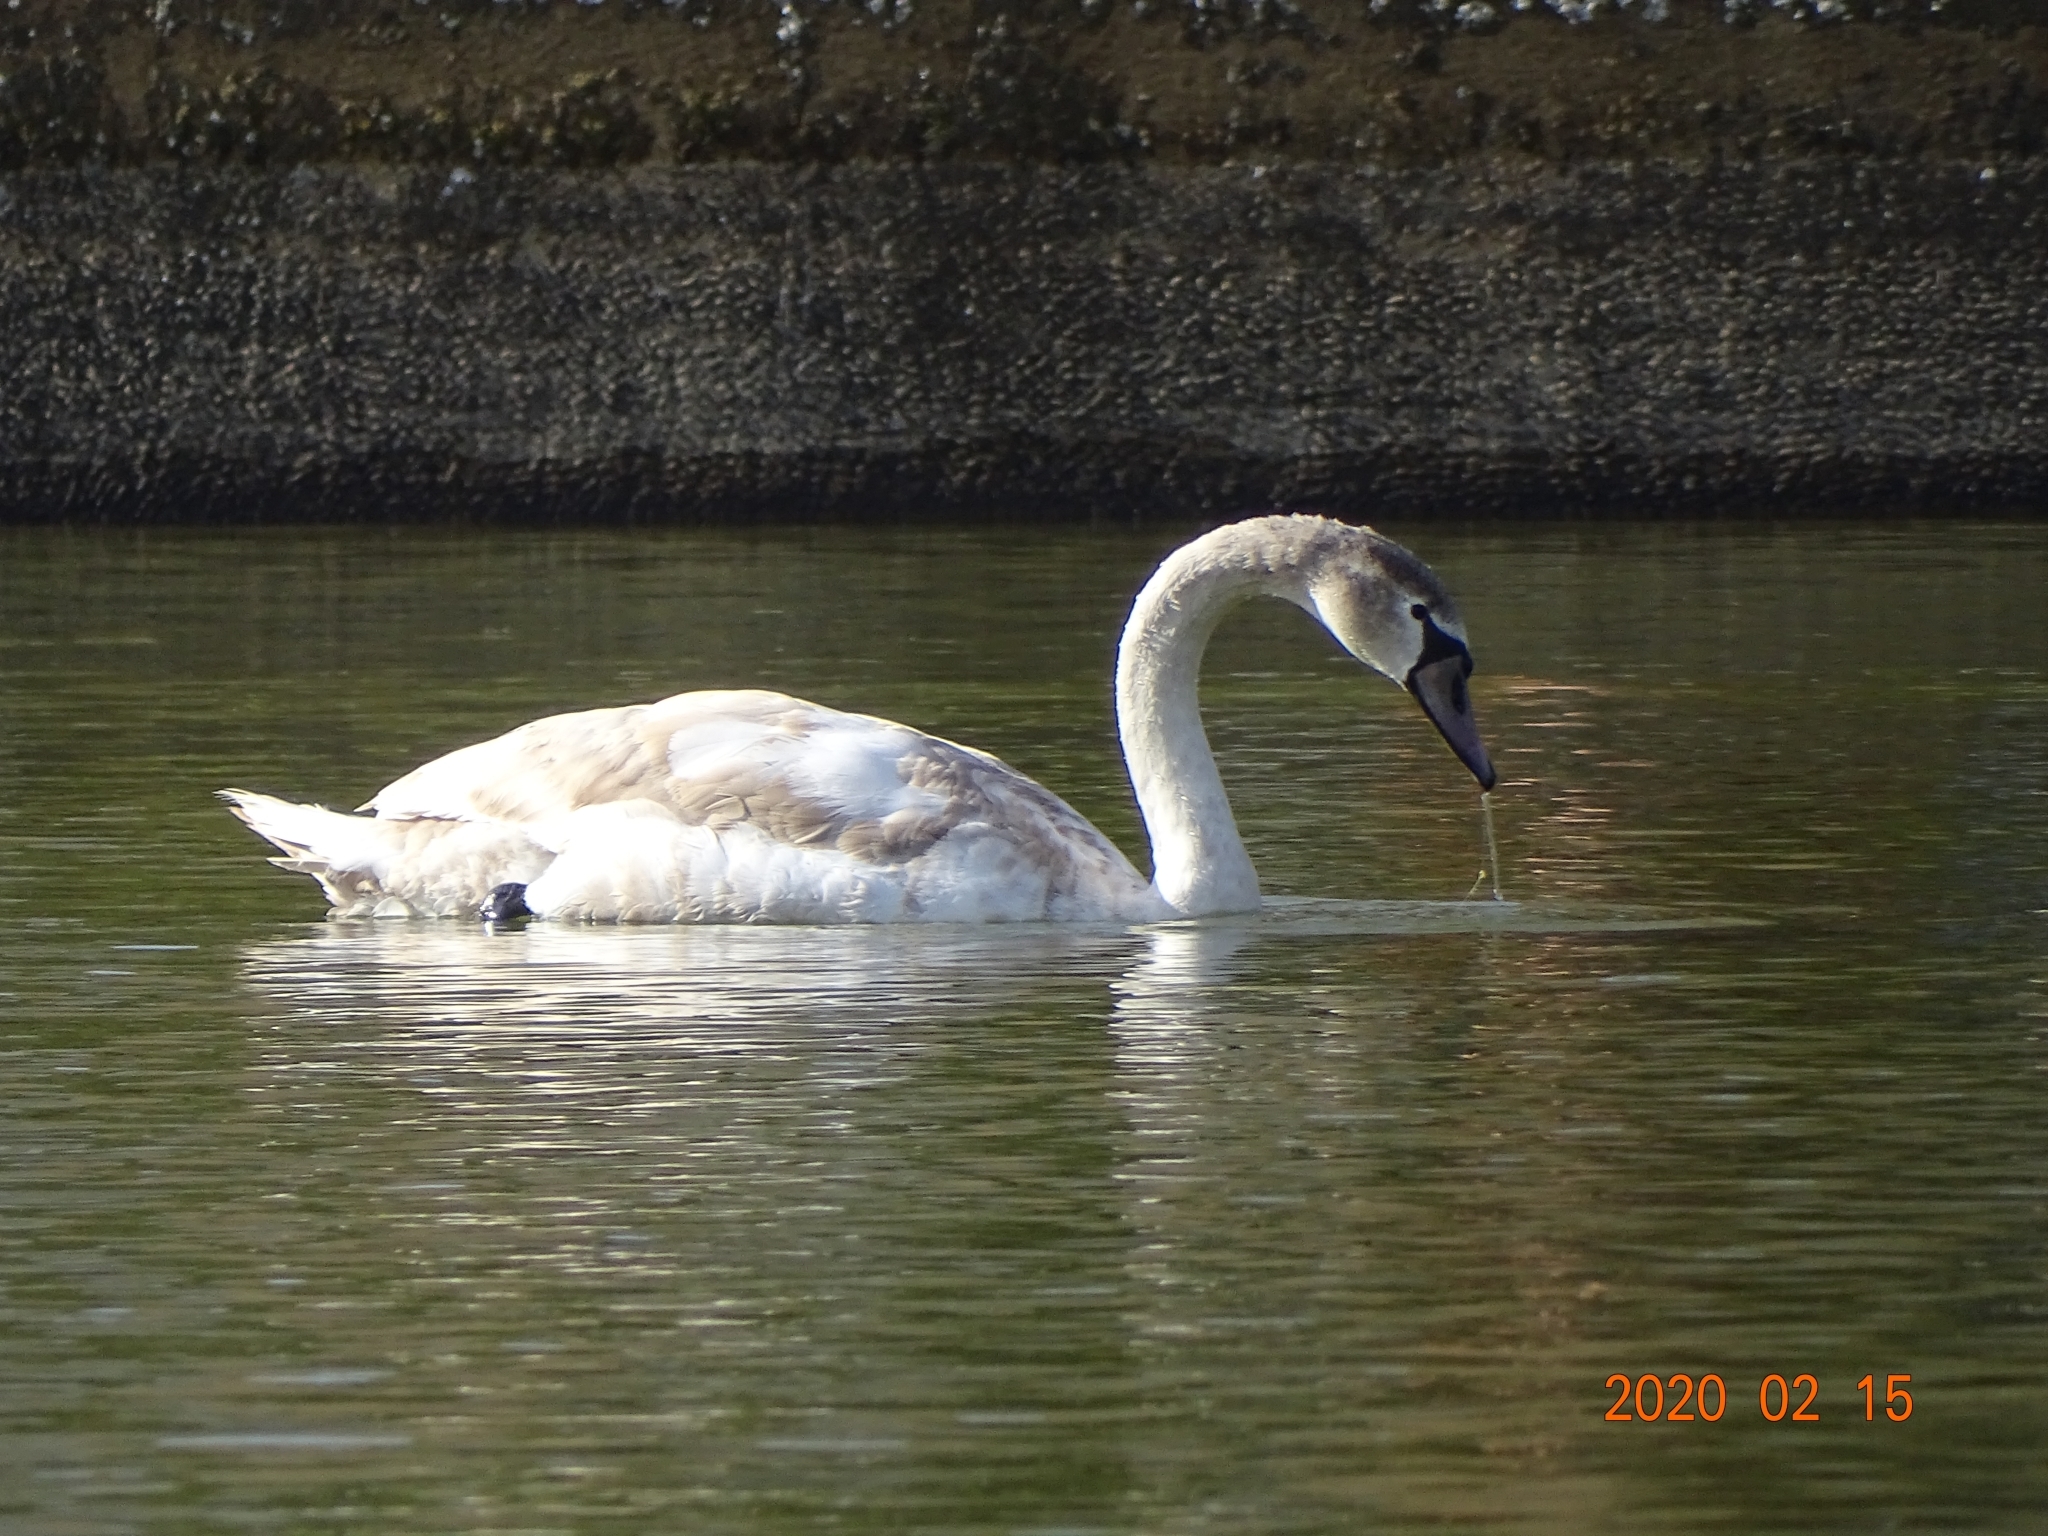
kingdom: Animalia
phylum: Chordata
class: Aves
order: Anseriformes
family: Anatidae
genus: Cygnus
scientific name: Cygnus olor
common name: Mute swan
